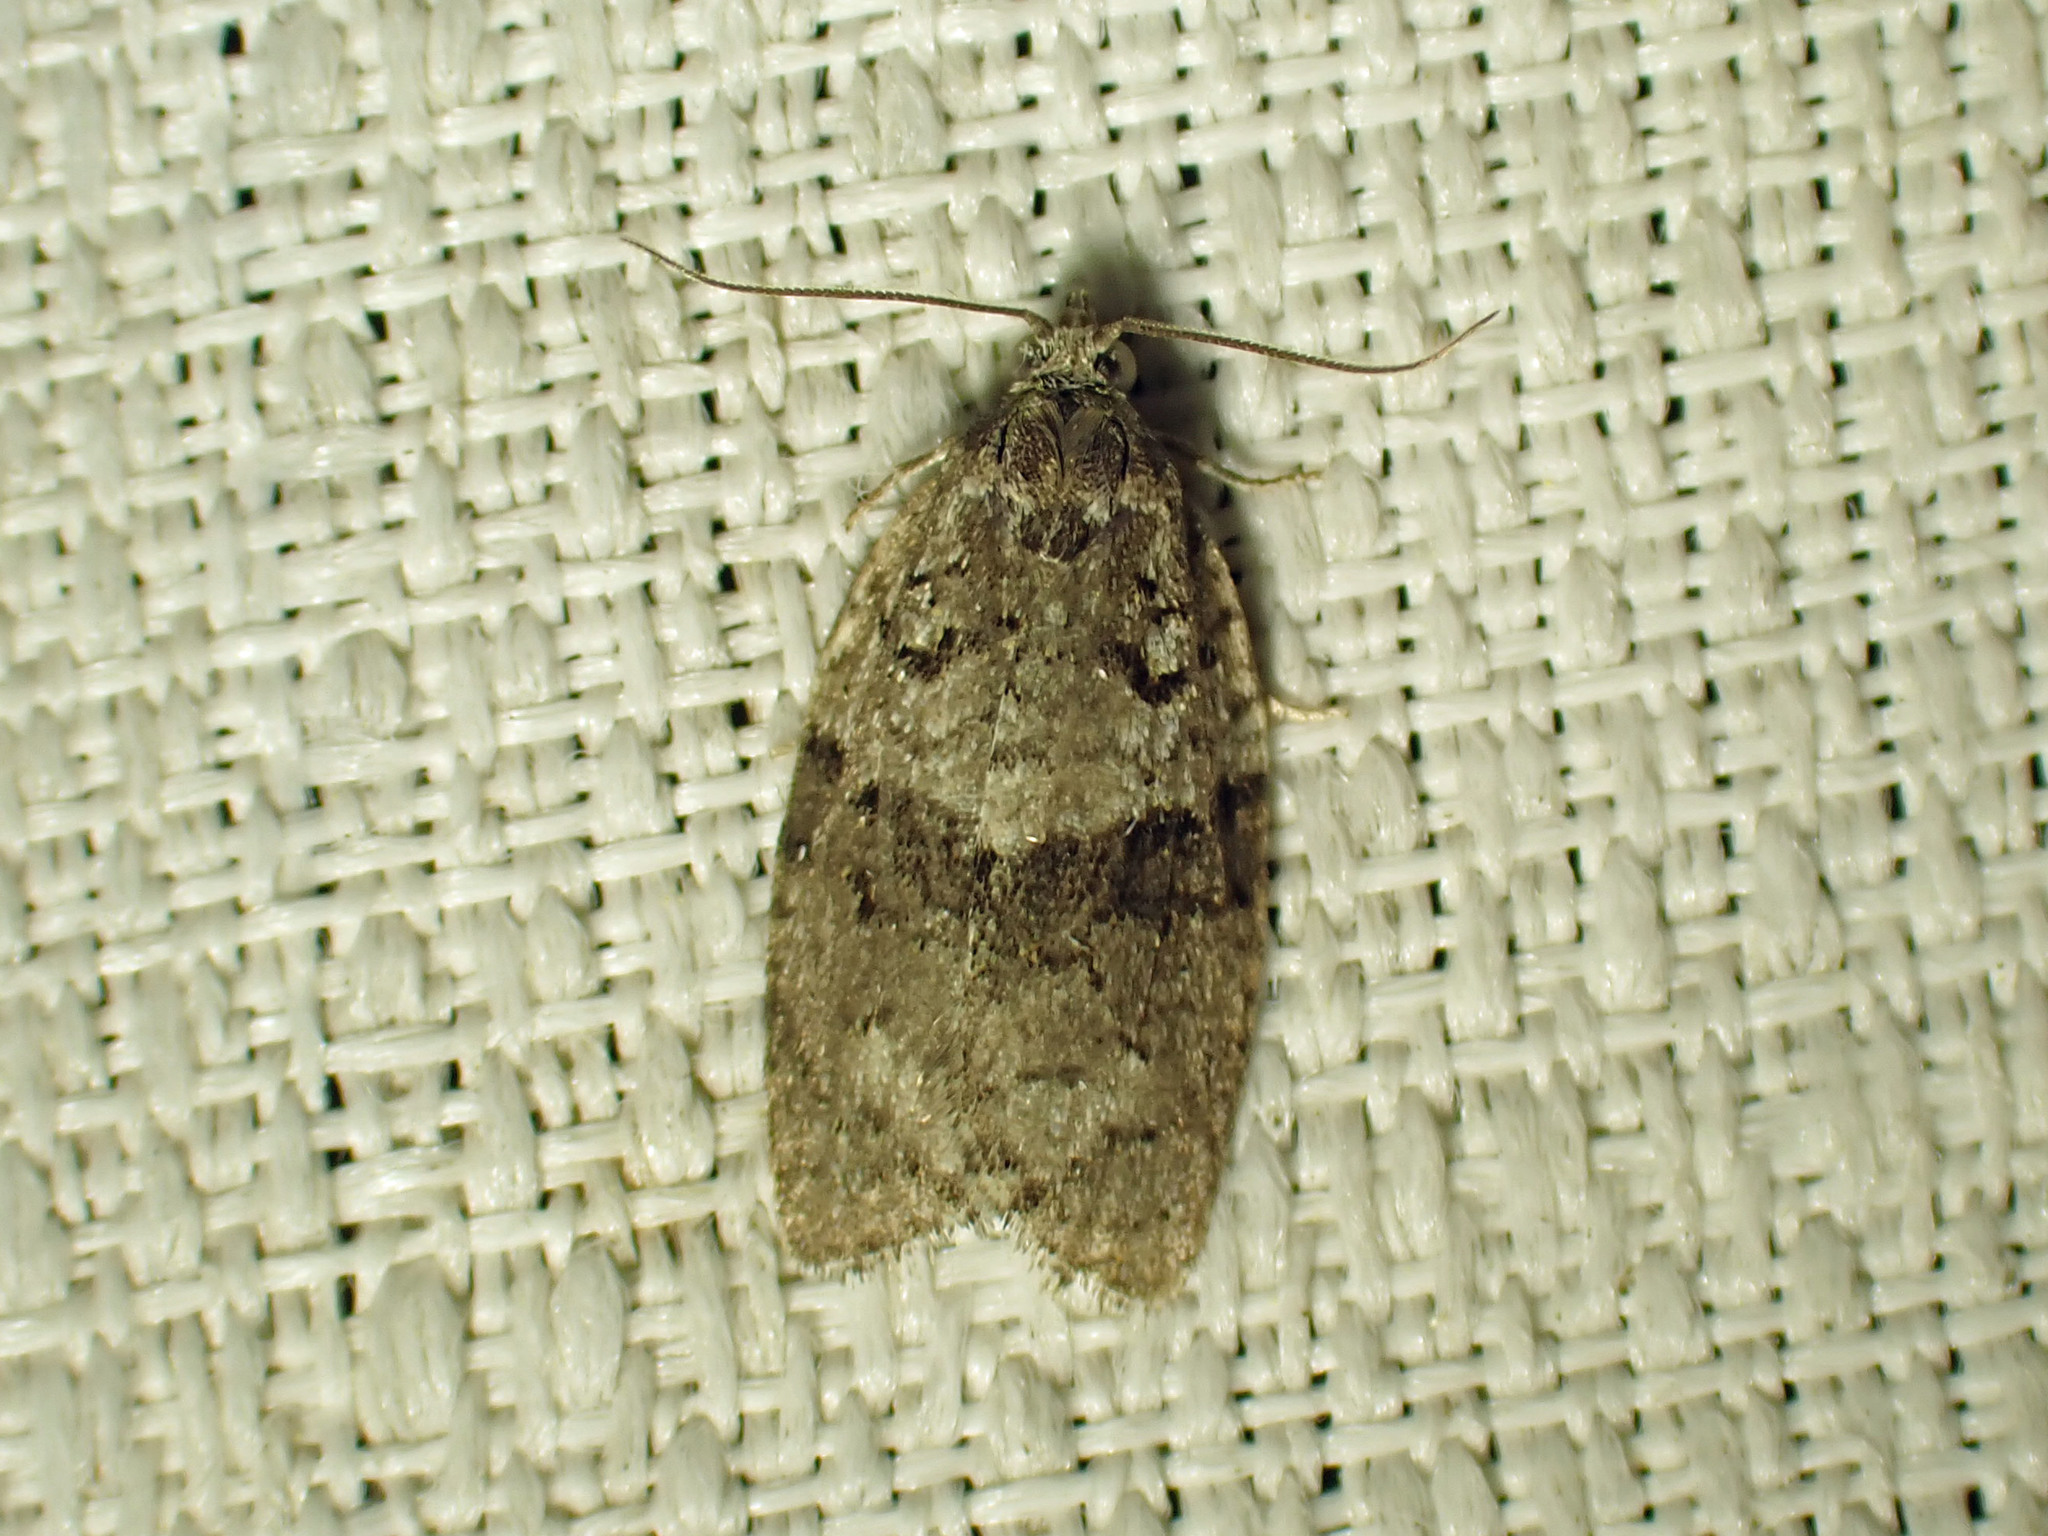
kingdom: Animalia
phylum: Arthropoda
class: Insecta
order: Lepidoptera
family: Tortricidae
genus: Syndemis
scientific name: Syndemis afflictana
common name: Gray leafroller moth
